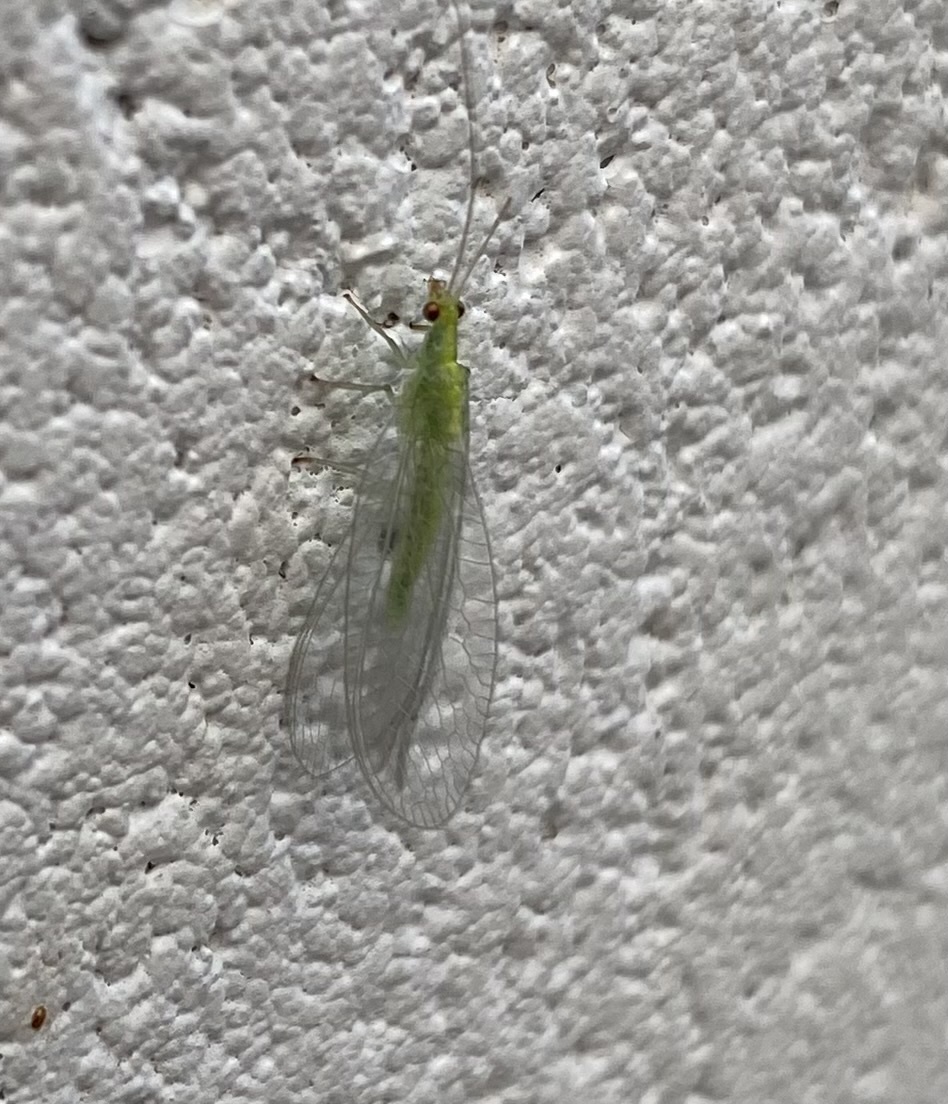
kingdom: Animalia
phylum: Arthropoda
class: Insecta
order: Neuroptera
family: Chrysopidae
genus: Mallada
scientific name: Mallada basalis
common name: Green lacewing
